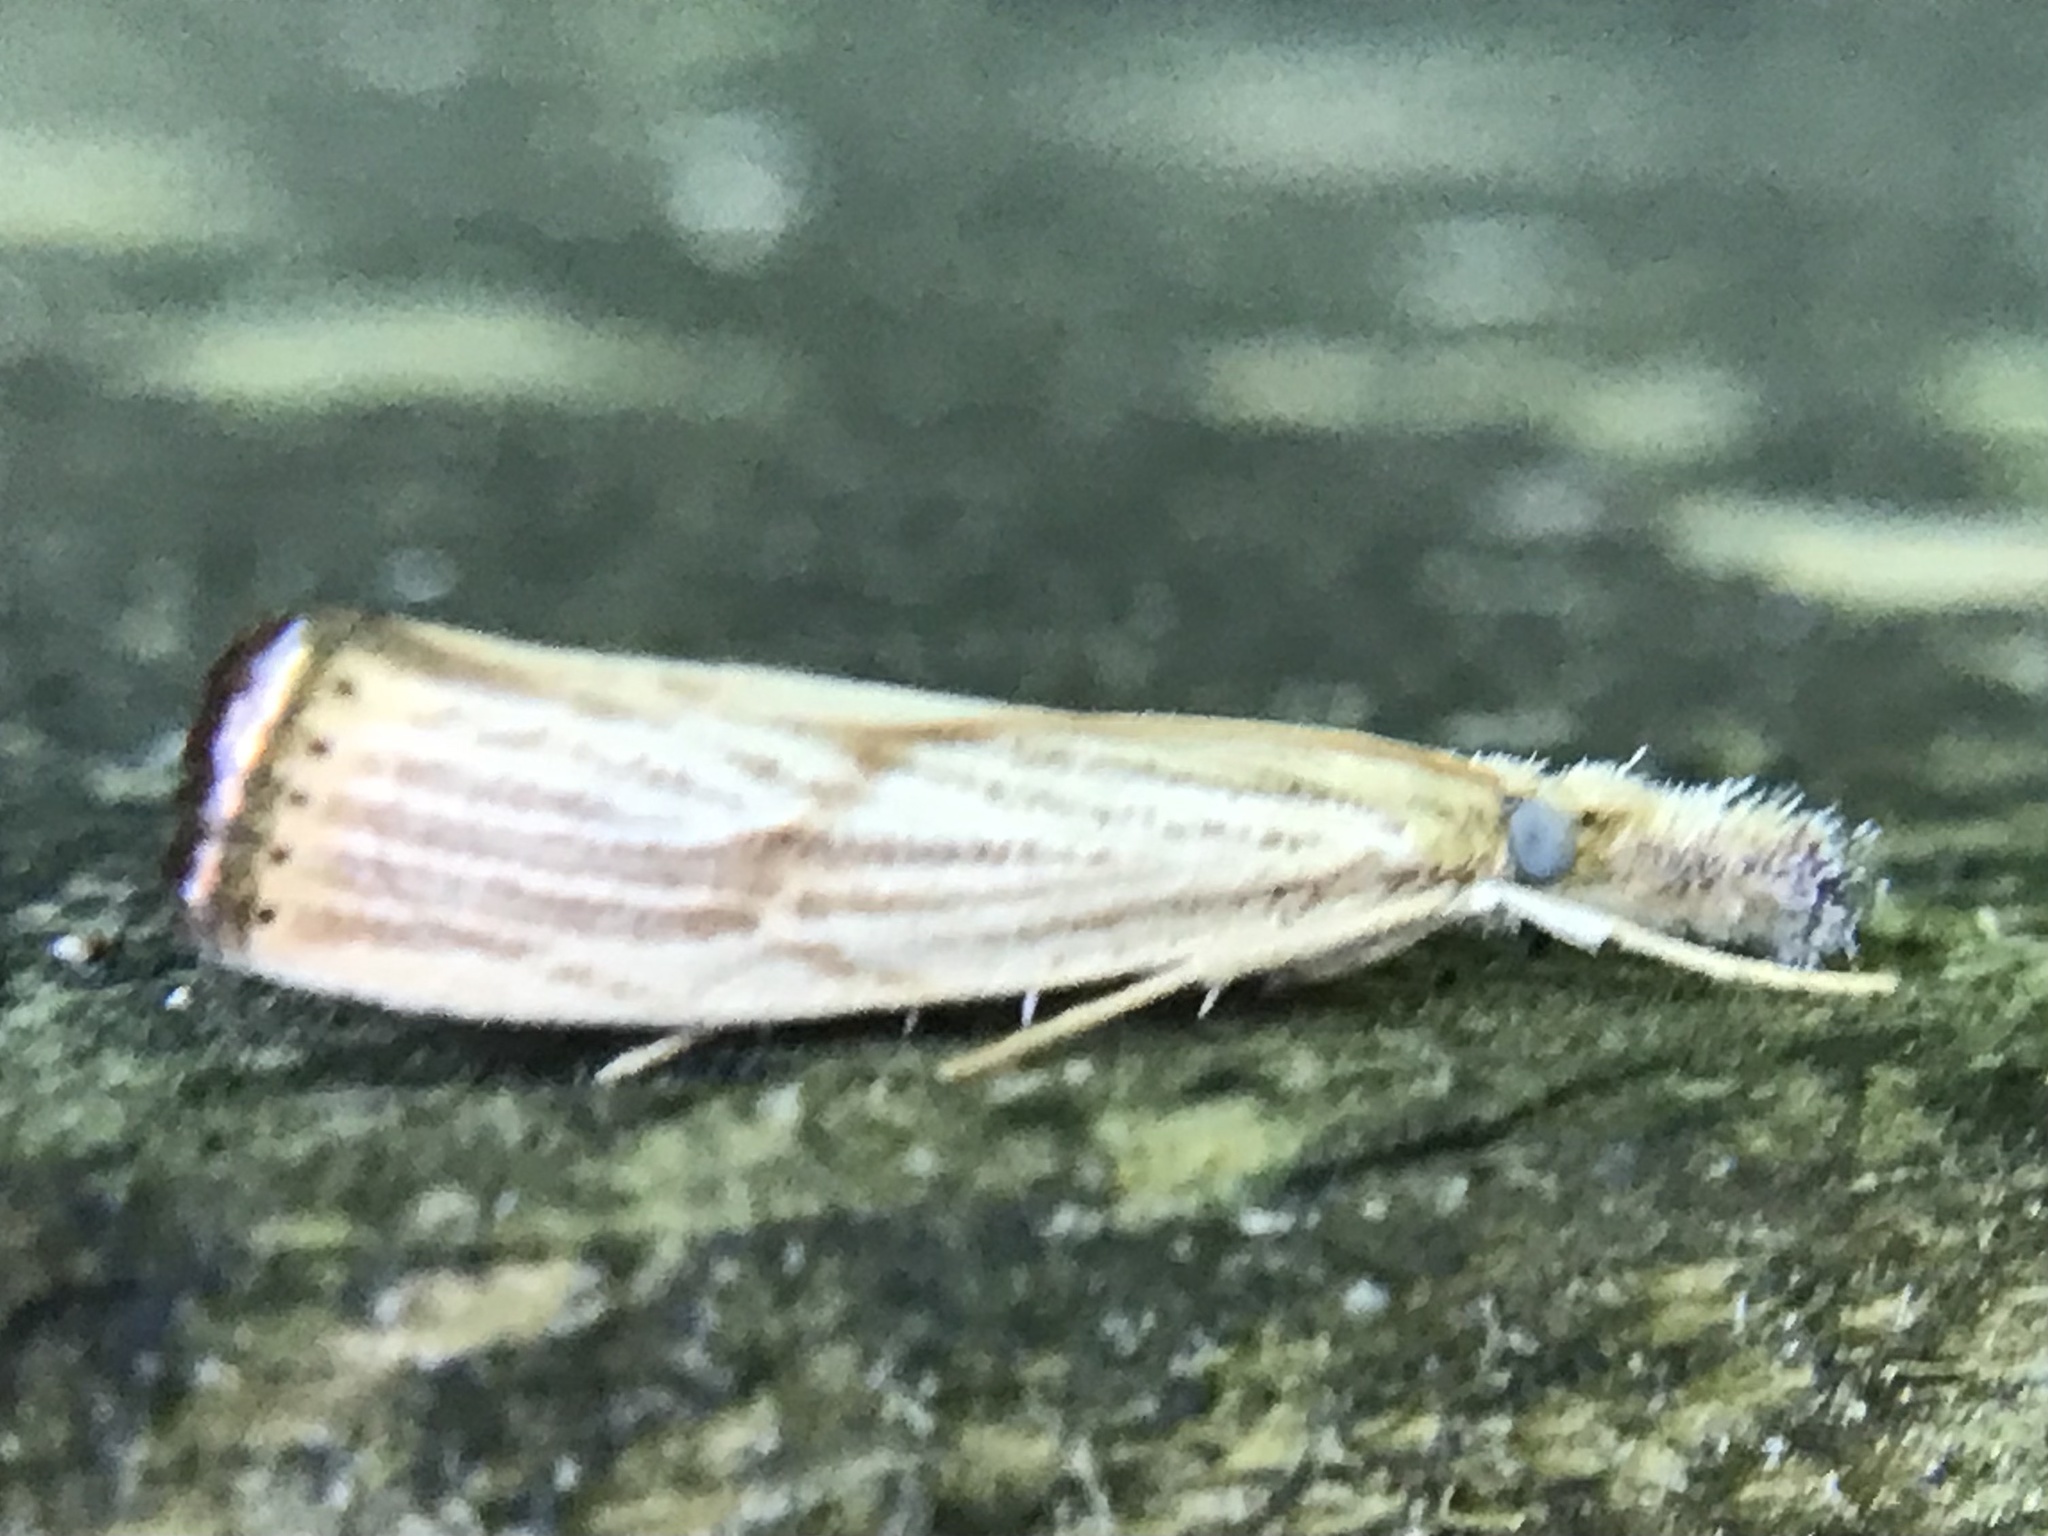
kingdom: Animalia
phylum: Arthropoda
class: Insecta
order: Lepidoptera
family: Crambidae
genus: Agriphila
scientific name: Agriphila ruricolellus
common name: Lesser vagabond sod webworm
